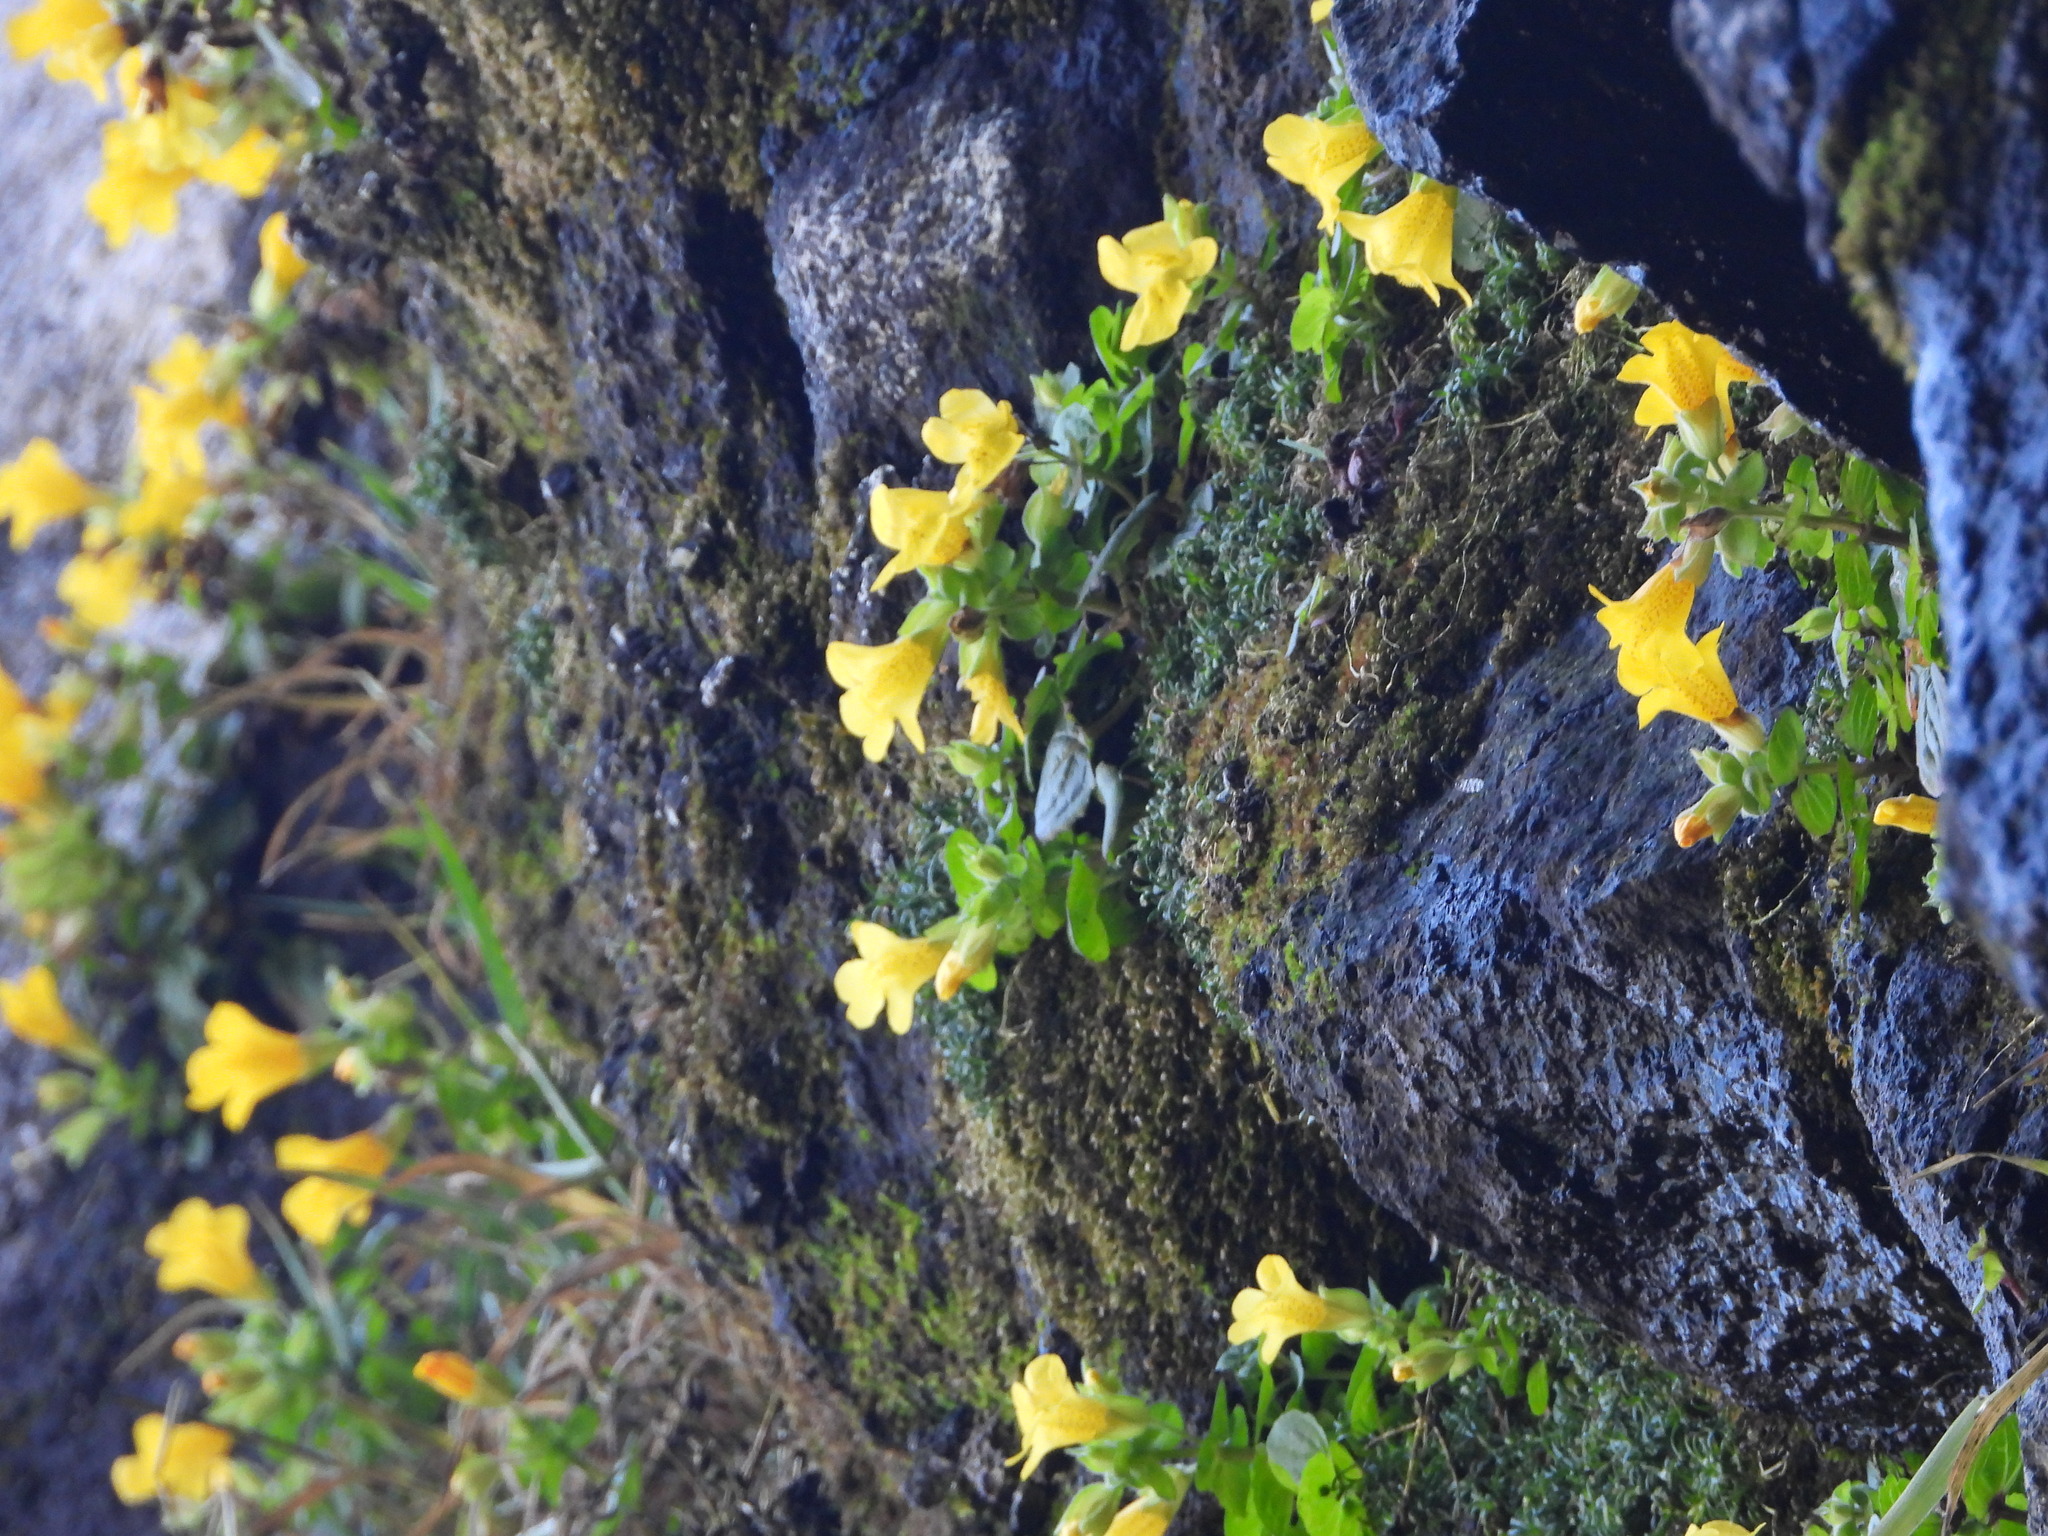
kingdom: Plantae
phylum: Tracheophyta
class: Magnoliopsida
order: Lamiales
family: Phrymaceae
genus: Erythranthe
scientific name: Erythranthe grandis
